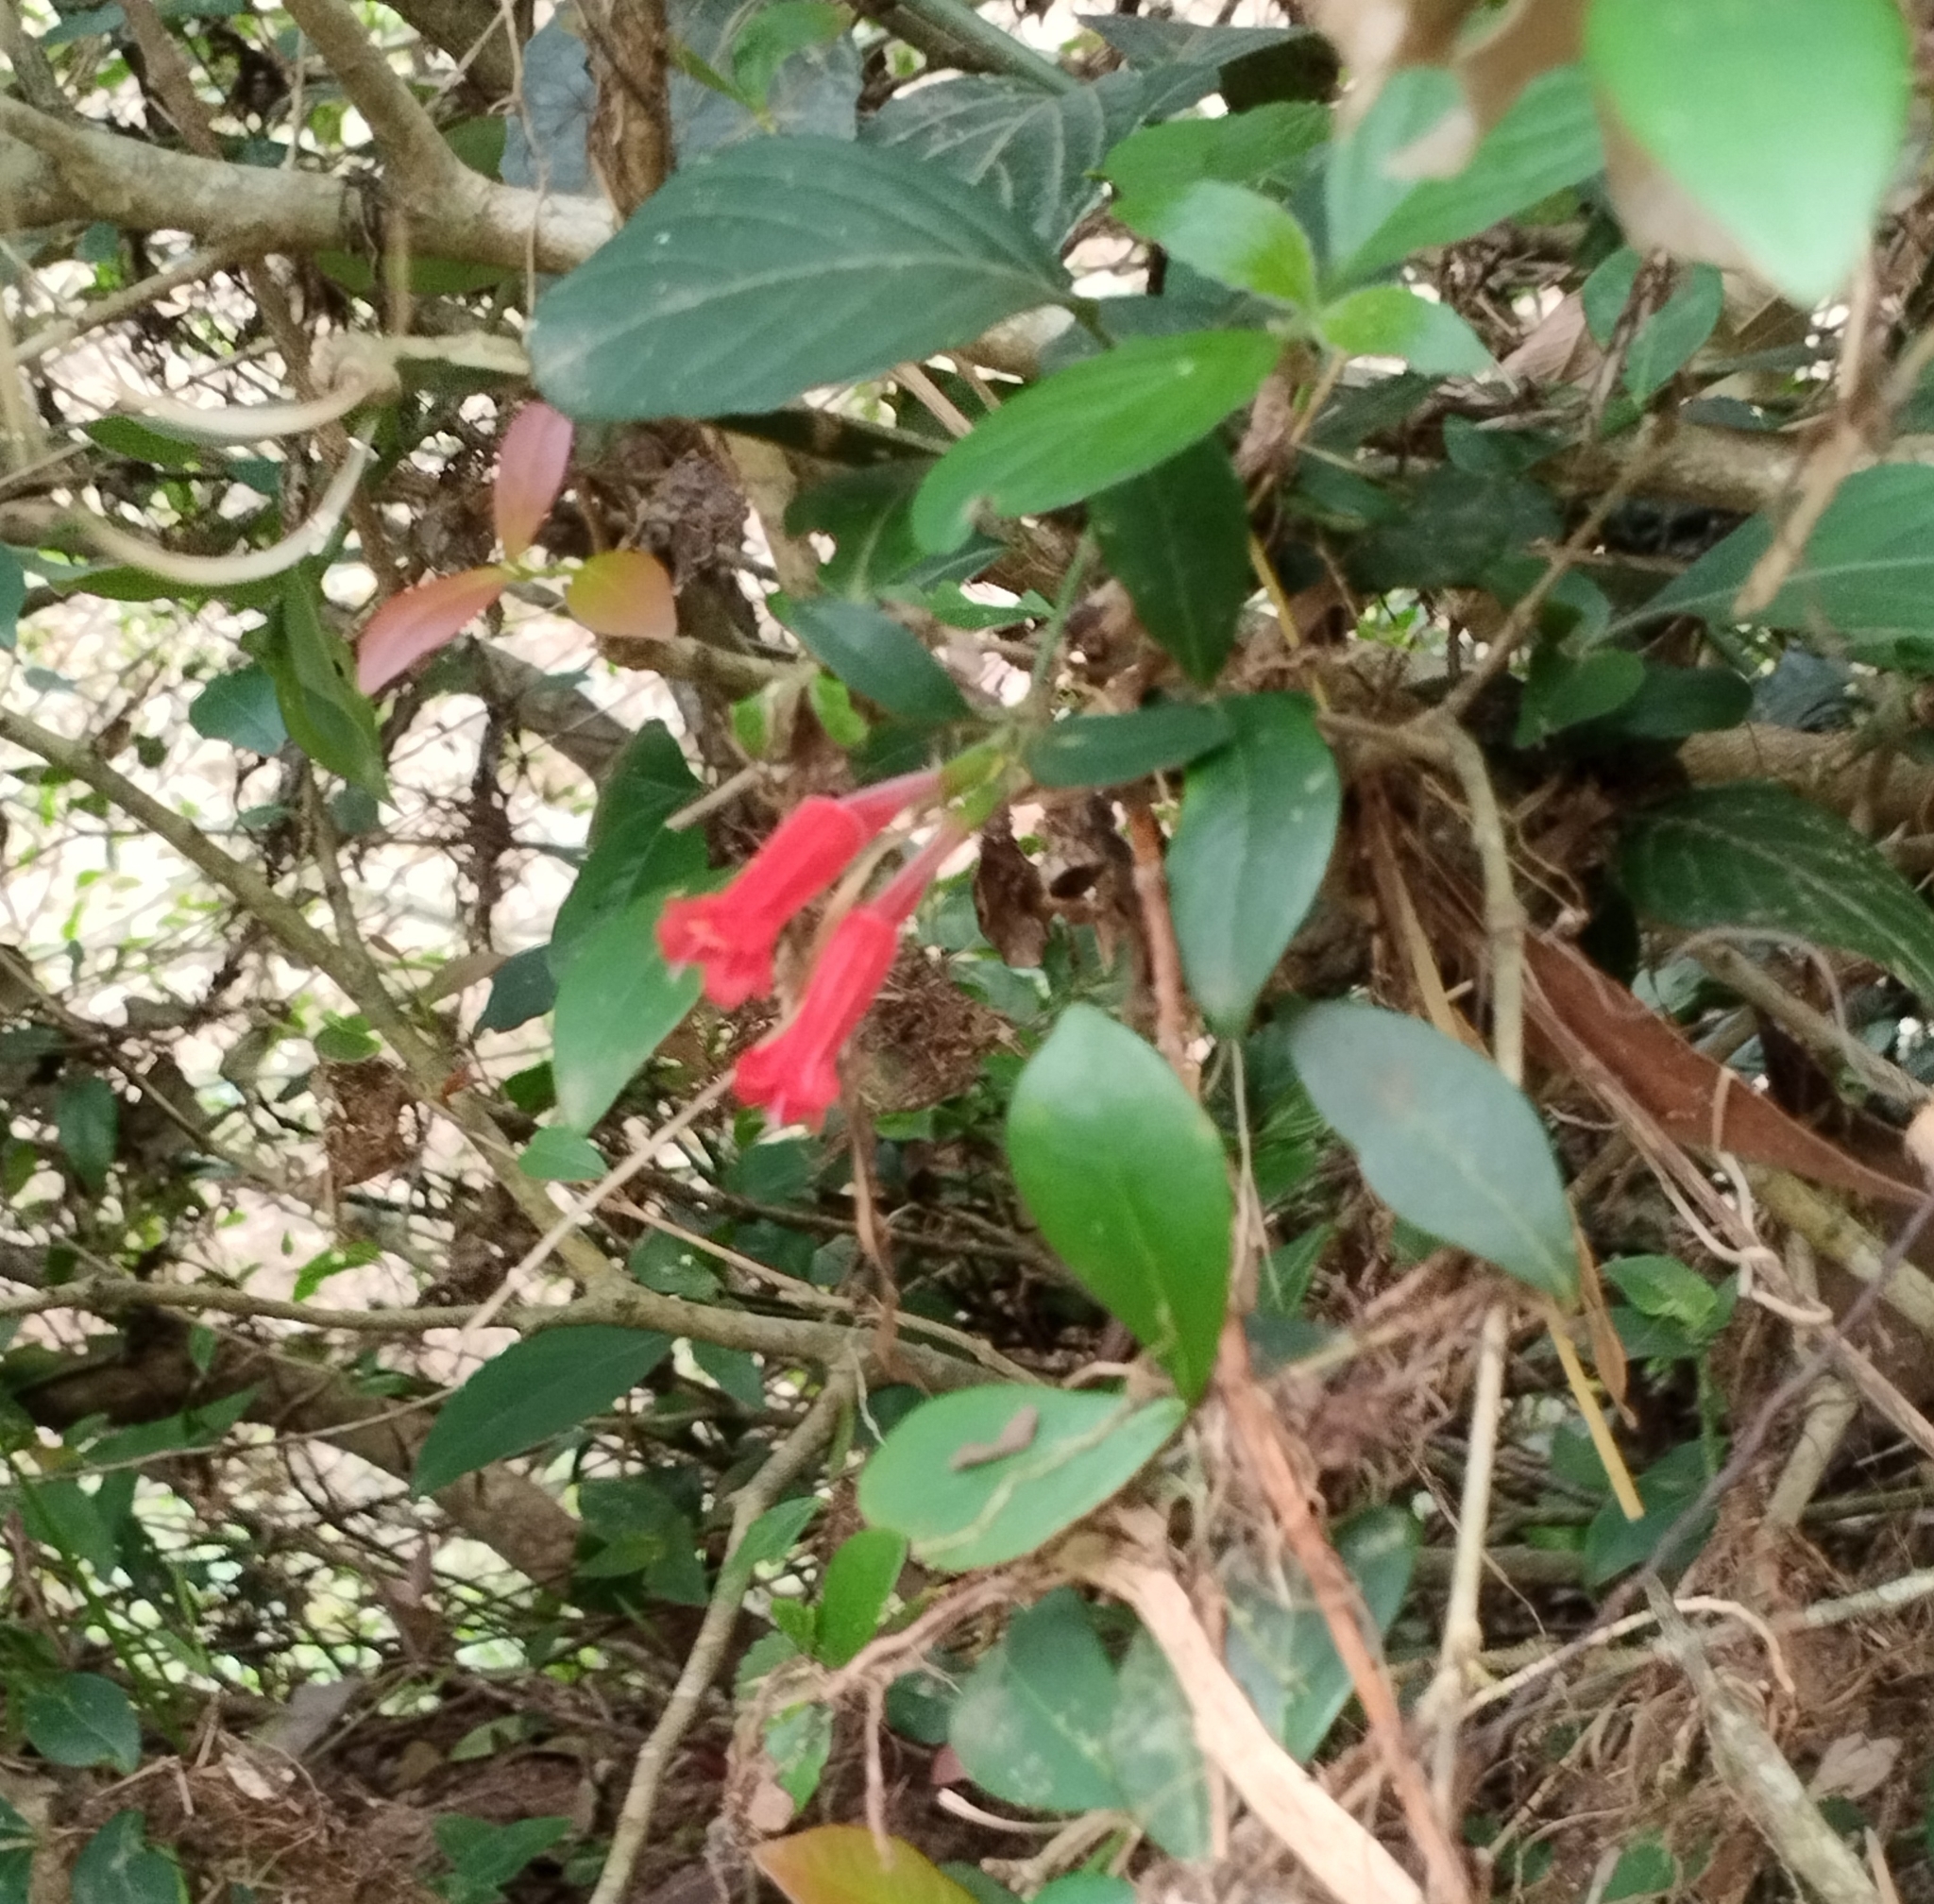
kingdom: Plantae
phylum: Tracheophyta
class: Magnoliopsida
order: Lamiales
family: Acanthaceae
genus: Ruellia
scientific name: Ruellia angustiflora
